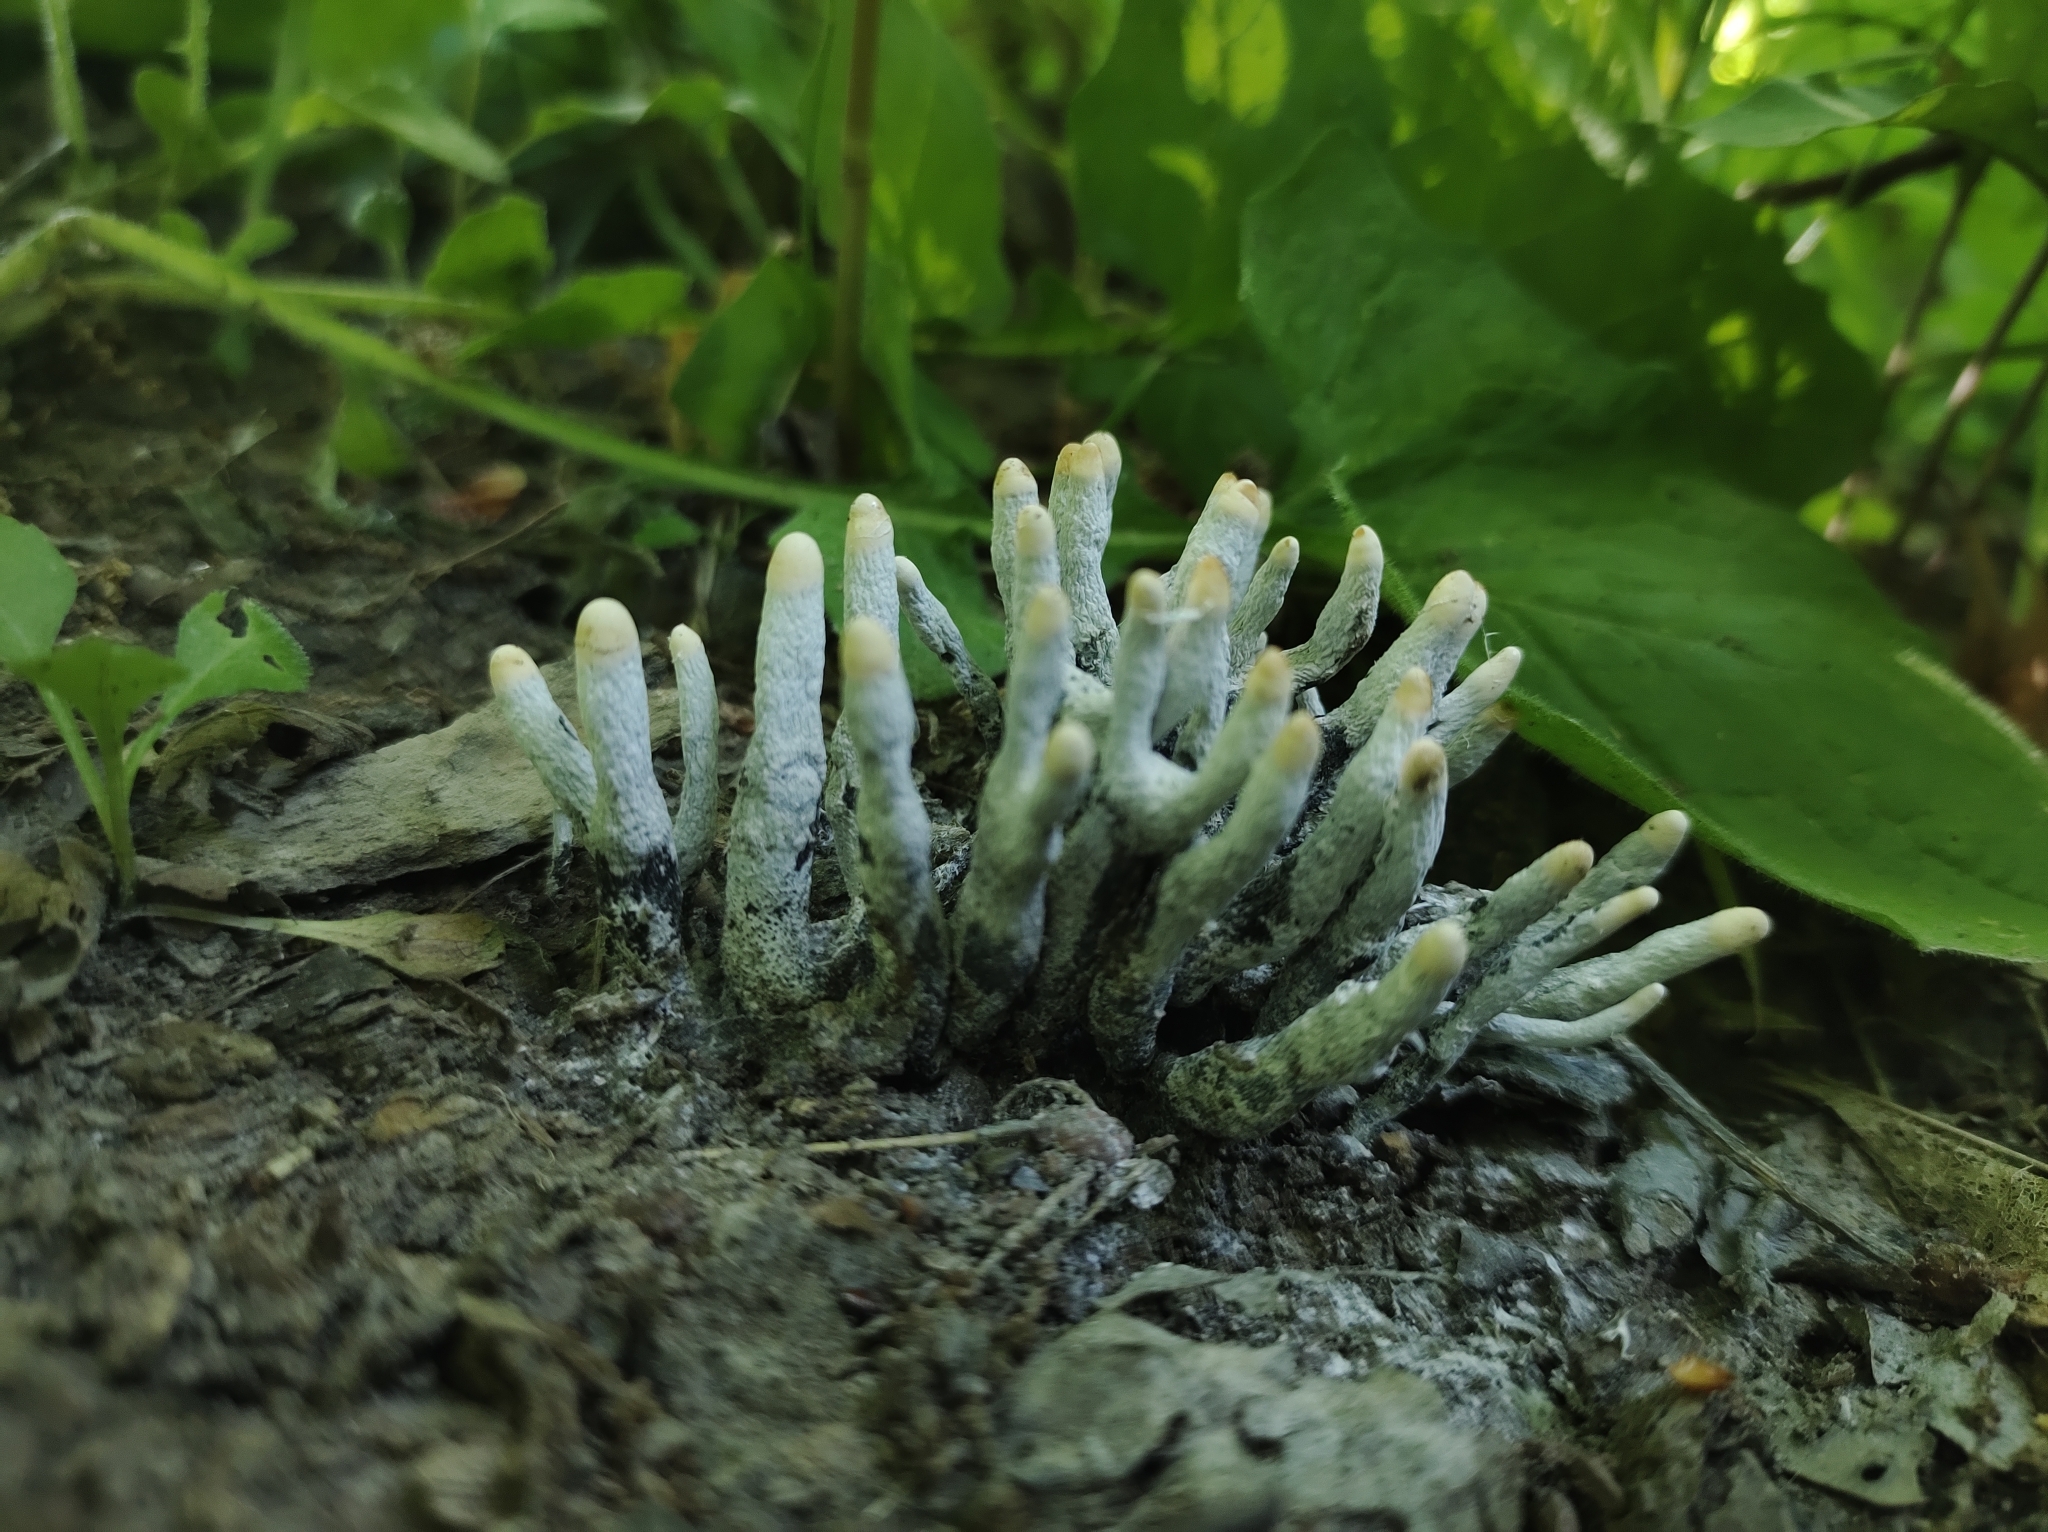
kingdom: Fungi
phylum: Ascomycota
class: Sordariomycetes
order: Xylariales
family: Xylariaceae
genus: Xylaria
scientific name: Xylaria polymorpha
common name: Dead man's fingers
